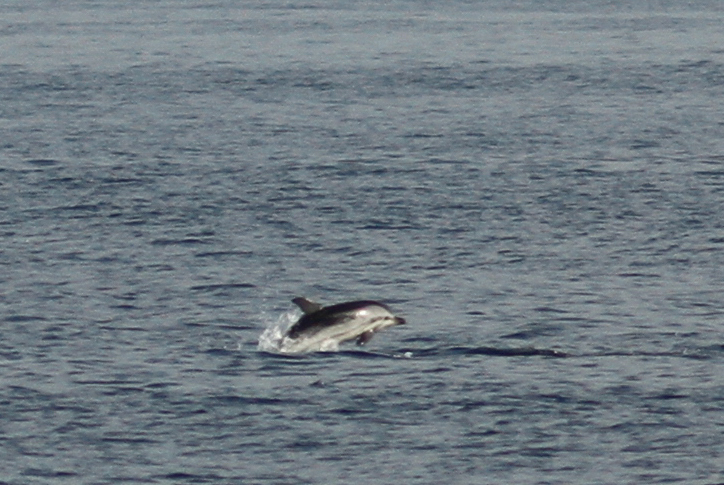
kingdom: Animalia
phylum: Chordata
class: Mammalia
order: Cetacea
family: Delphinidae
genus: Stenella
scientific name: Stenella coeruleoalba
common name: Striped dolphin
